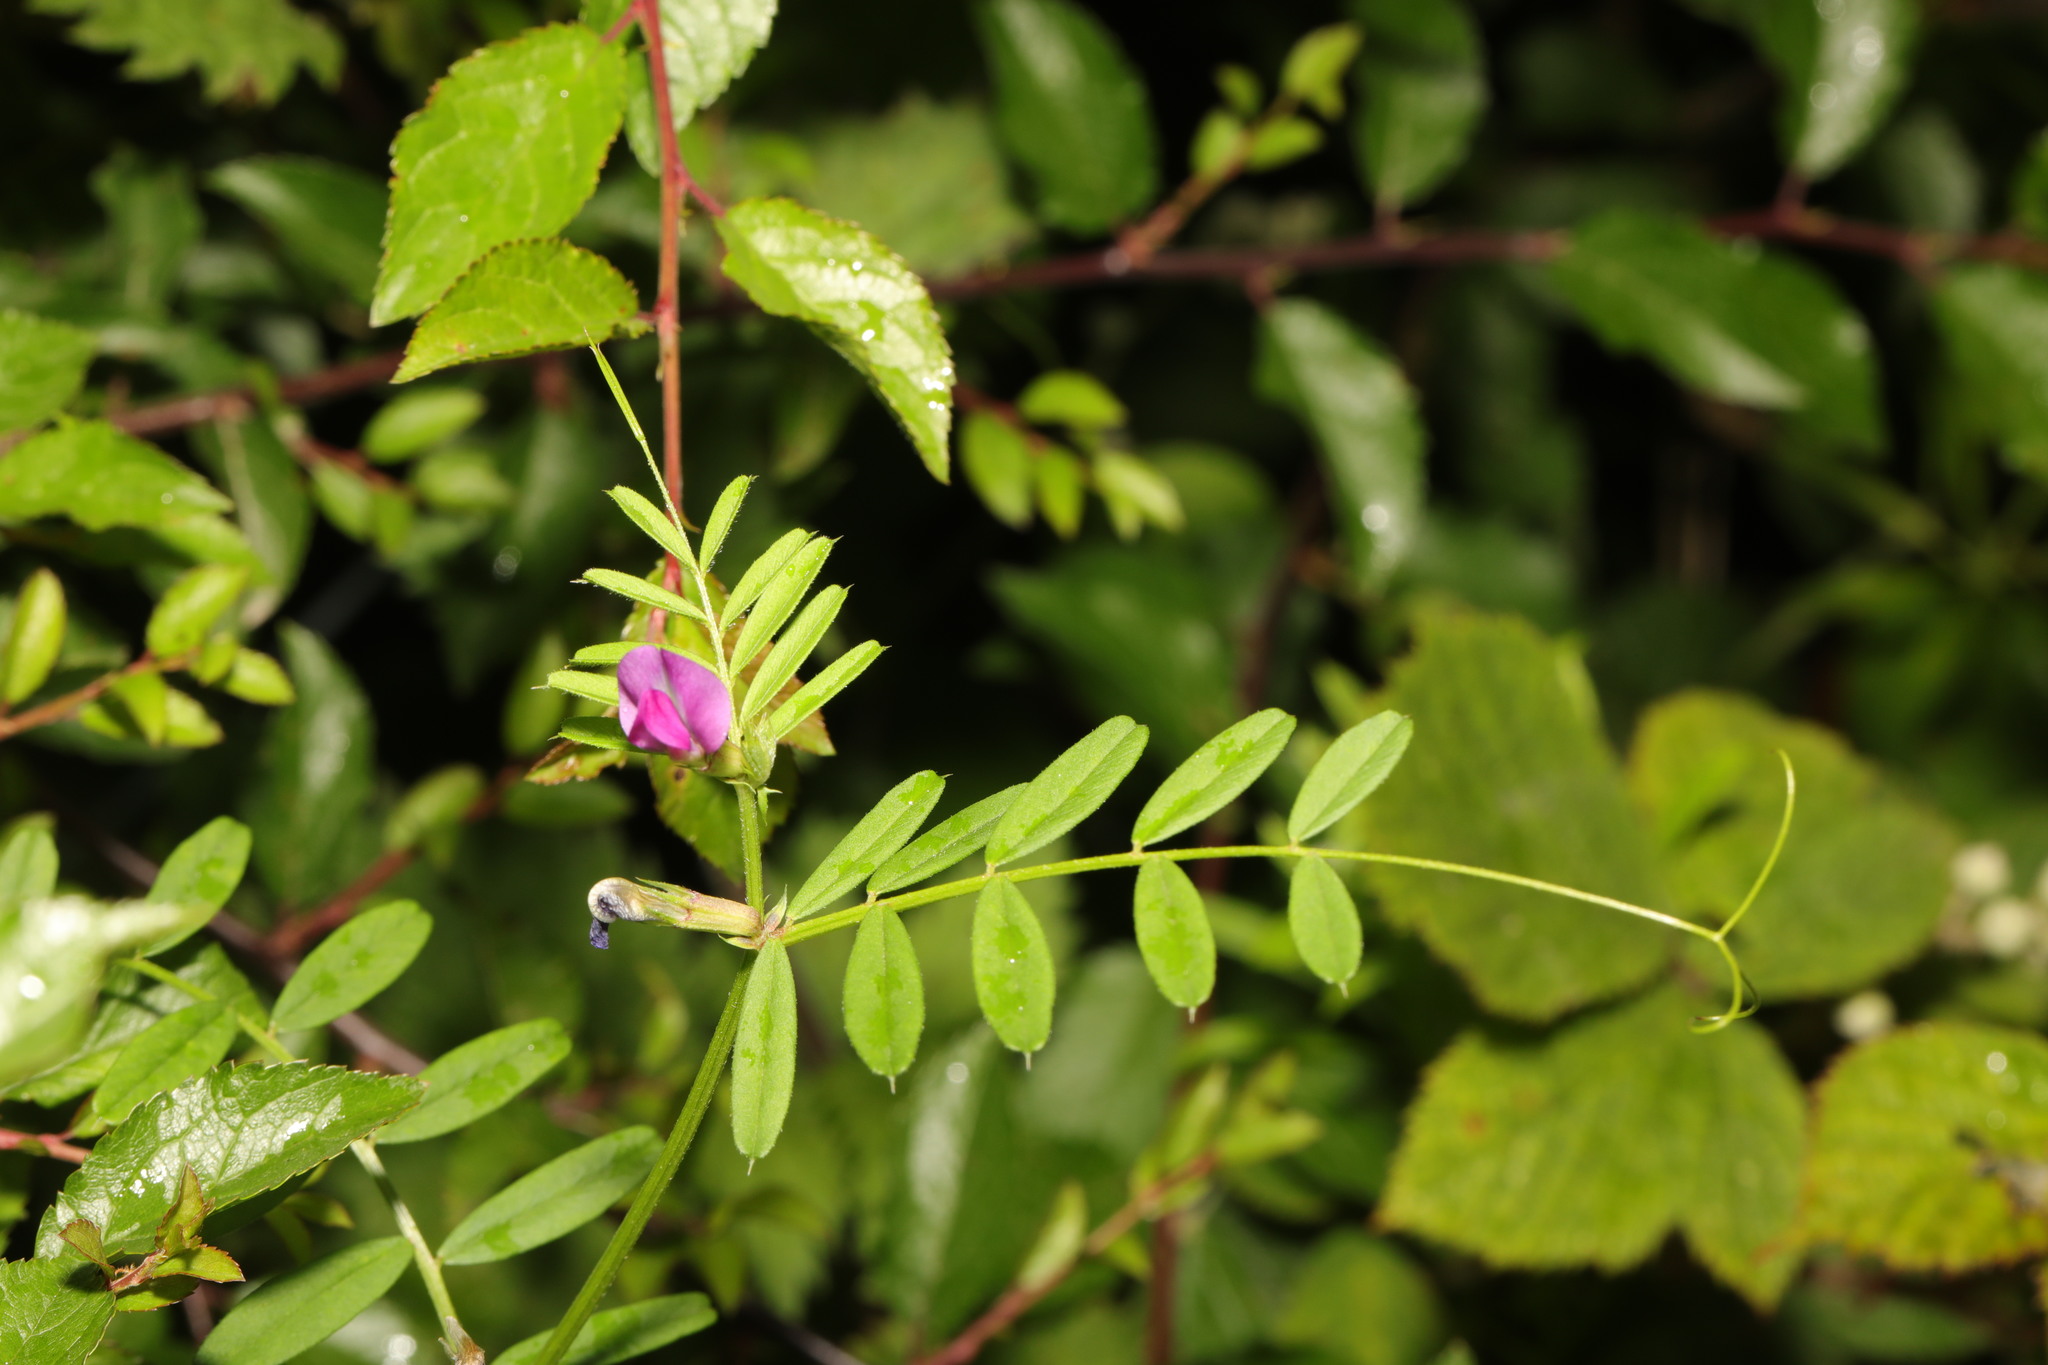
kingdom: Plantae
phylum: Tracheophyta
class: Magnoliopsida
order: Fabales
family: Fabaceae
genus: Vicia
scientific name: Vicia sativa
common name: Garden vetch
